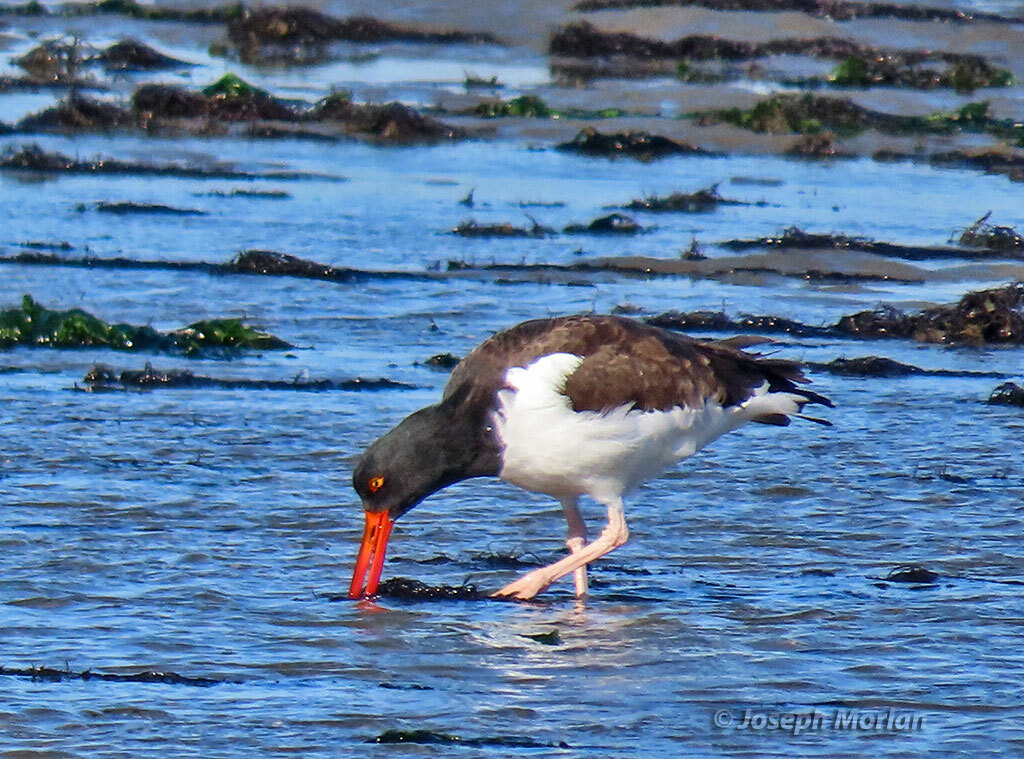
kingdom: Animalia
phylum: Chordata
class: Aves
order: Charadriiformes
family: Haematopodidae
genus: Haematopus
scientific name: Haematopus palliatus
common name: American oystercatcher
